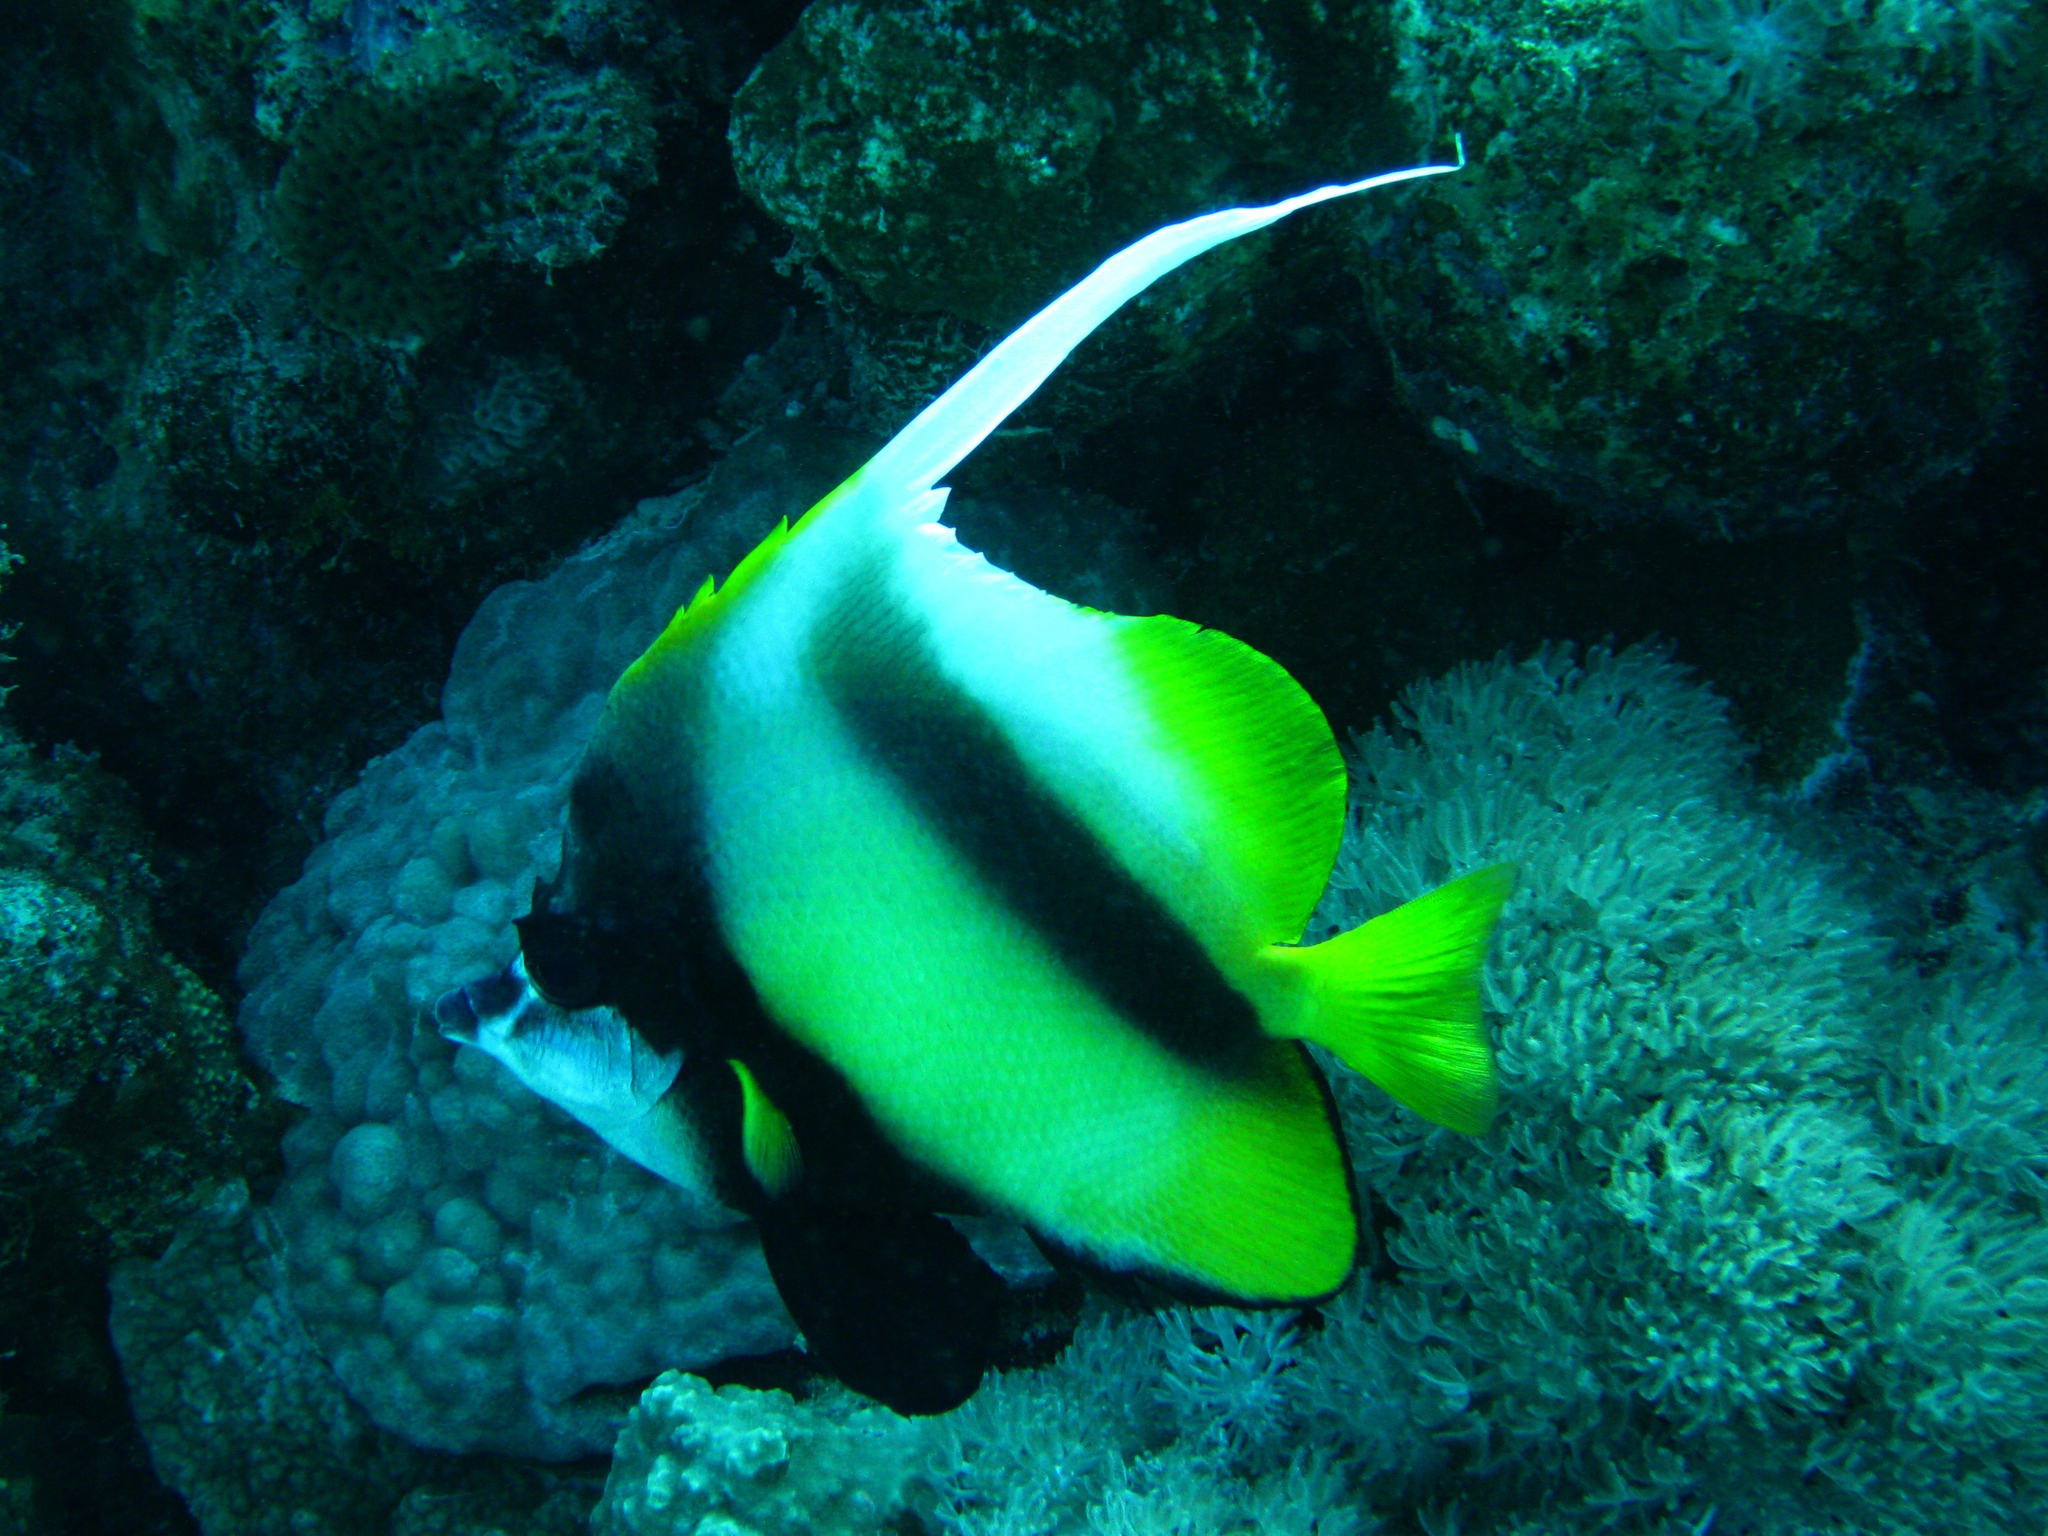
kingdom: Animalia
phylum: Chordata
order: Perciformes
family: Chaetodontidae
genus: Heniochus
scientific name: Heniochus intermedius
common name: Red sea bannerfish
